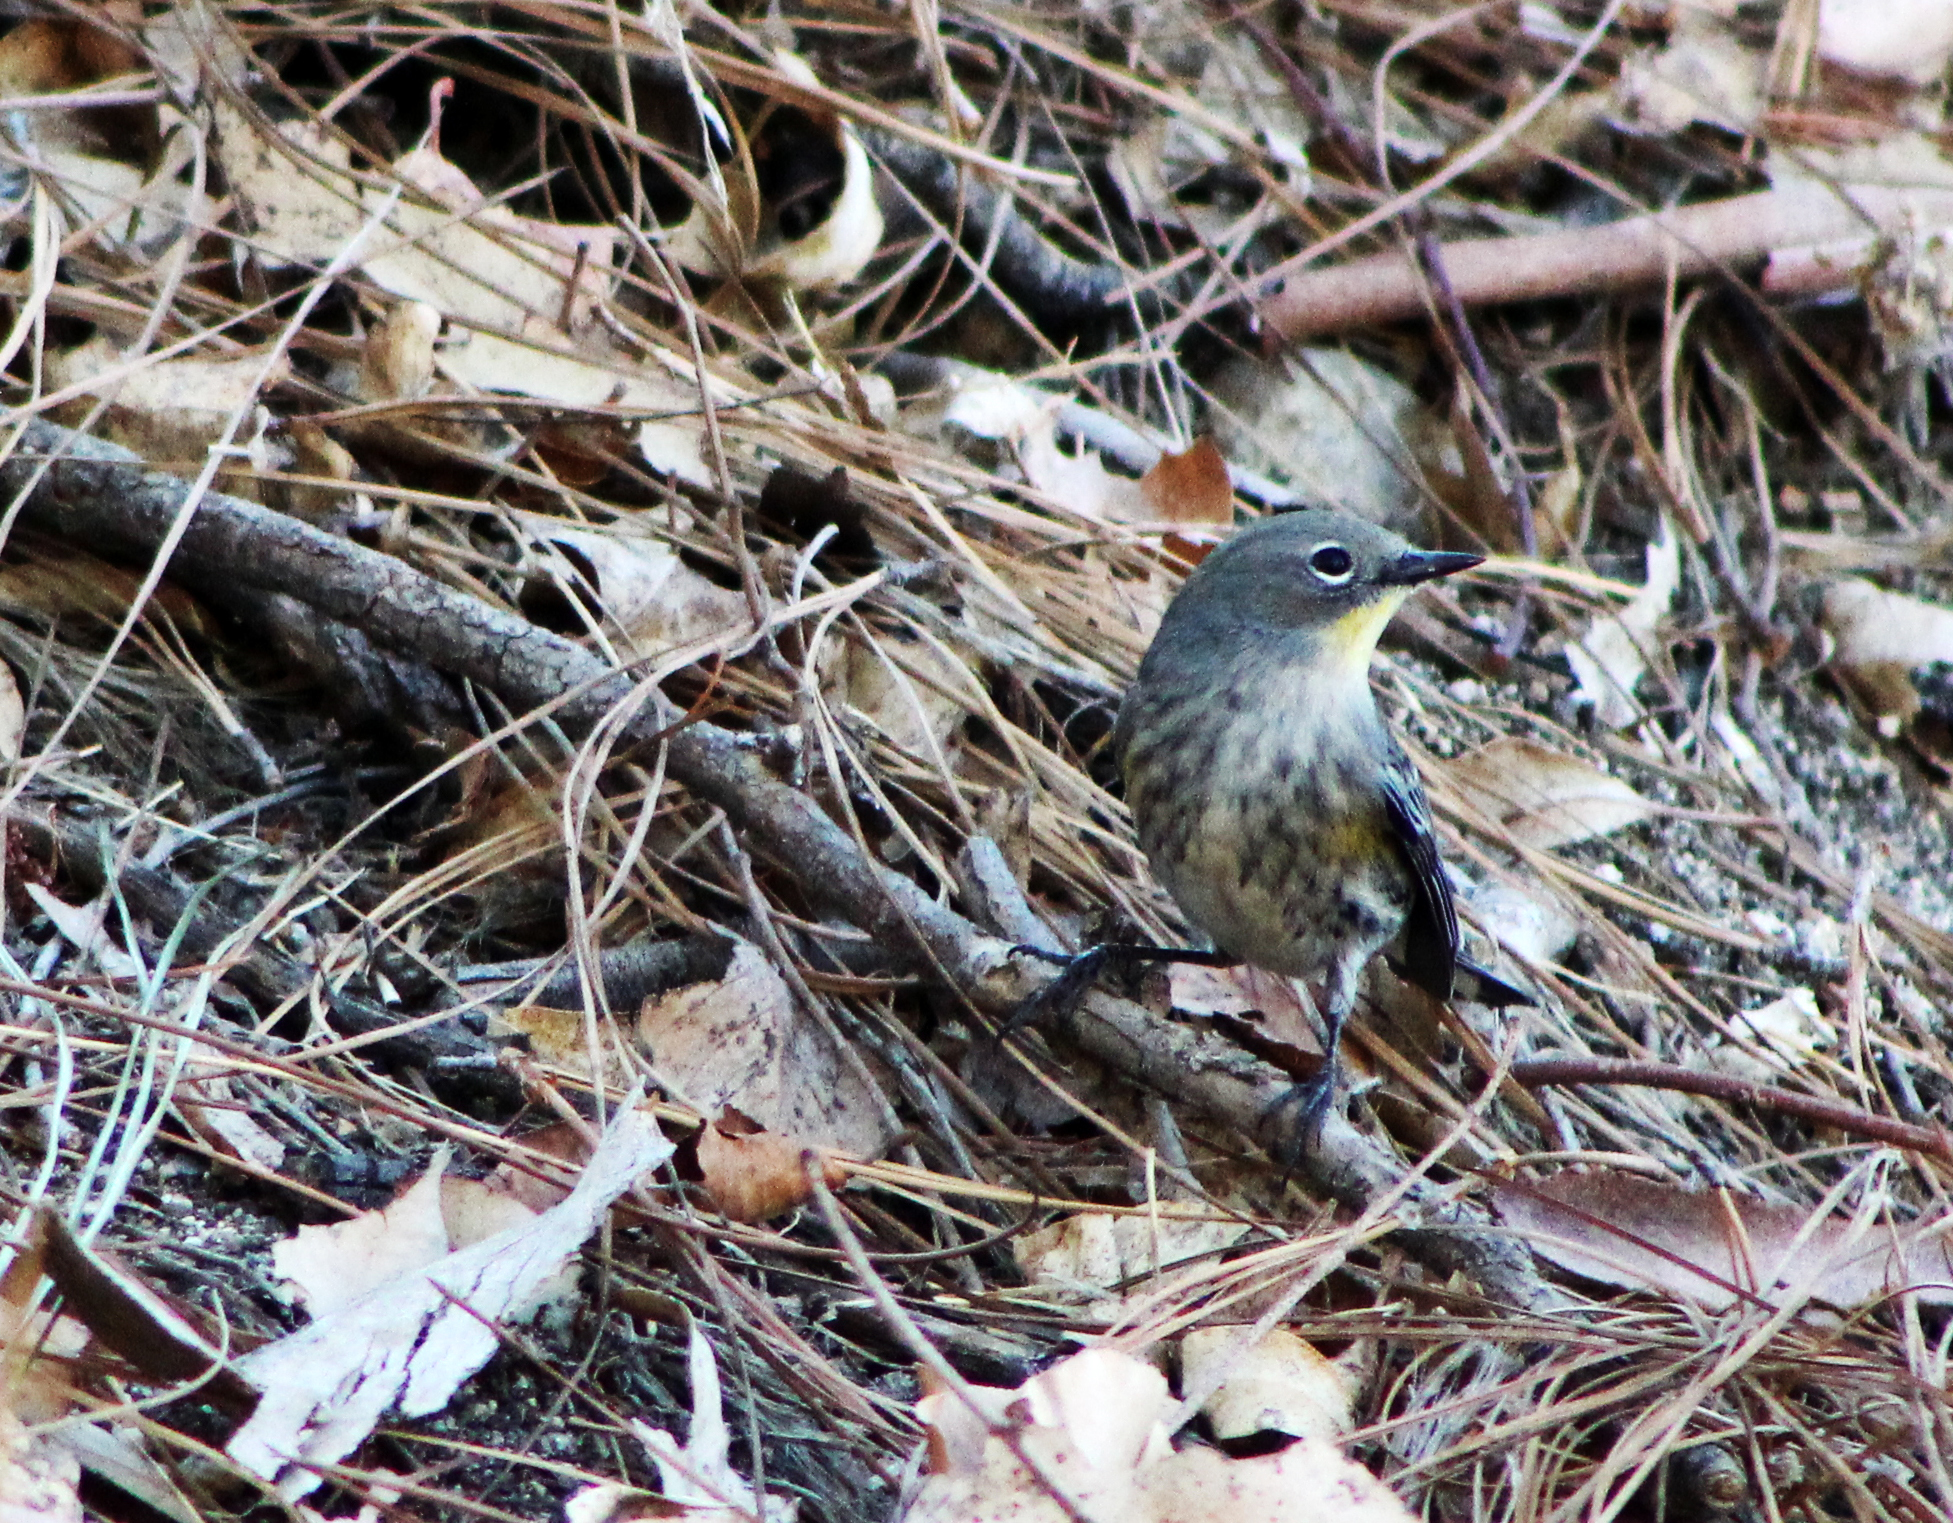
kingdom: Animalia
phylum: Chordata
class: Aves
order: Passeriformes
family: Parulidae
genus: Setophaga
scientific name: Setophaga coronata
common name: Myrtle warbler
